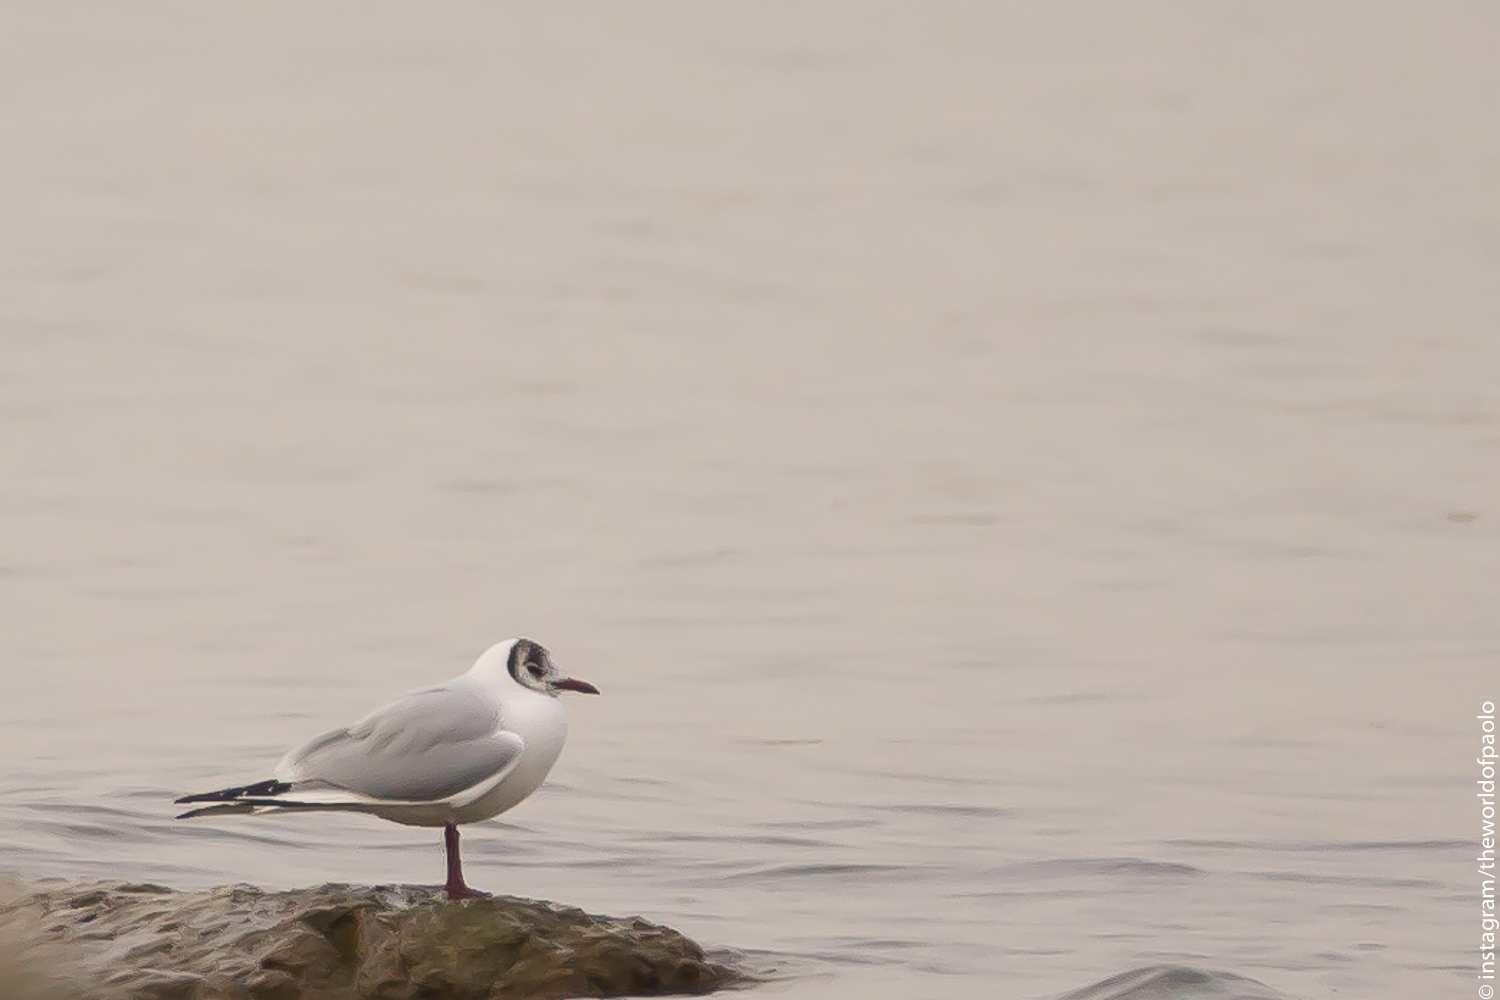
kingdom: Animalia
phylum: Chordata
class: Aves
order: Charadriiformes
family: Laridae
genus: Chroicocephalus
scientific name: Chroicocephalus ridibundus
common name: Black-headed gull
